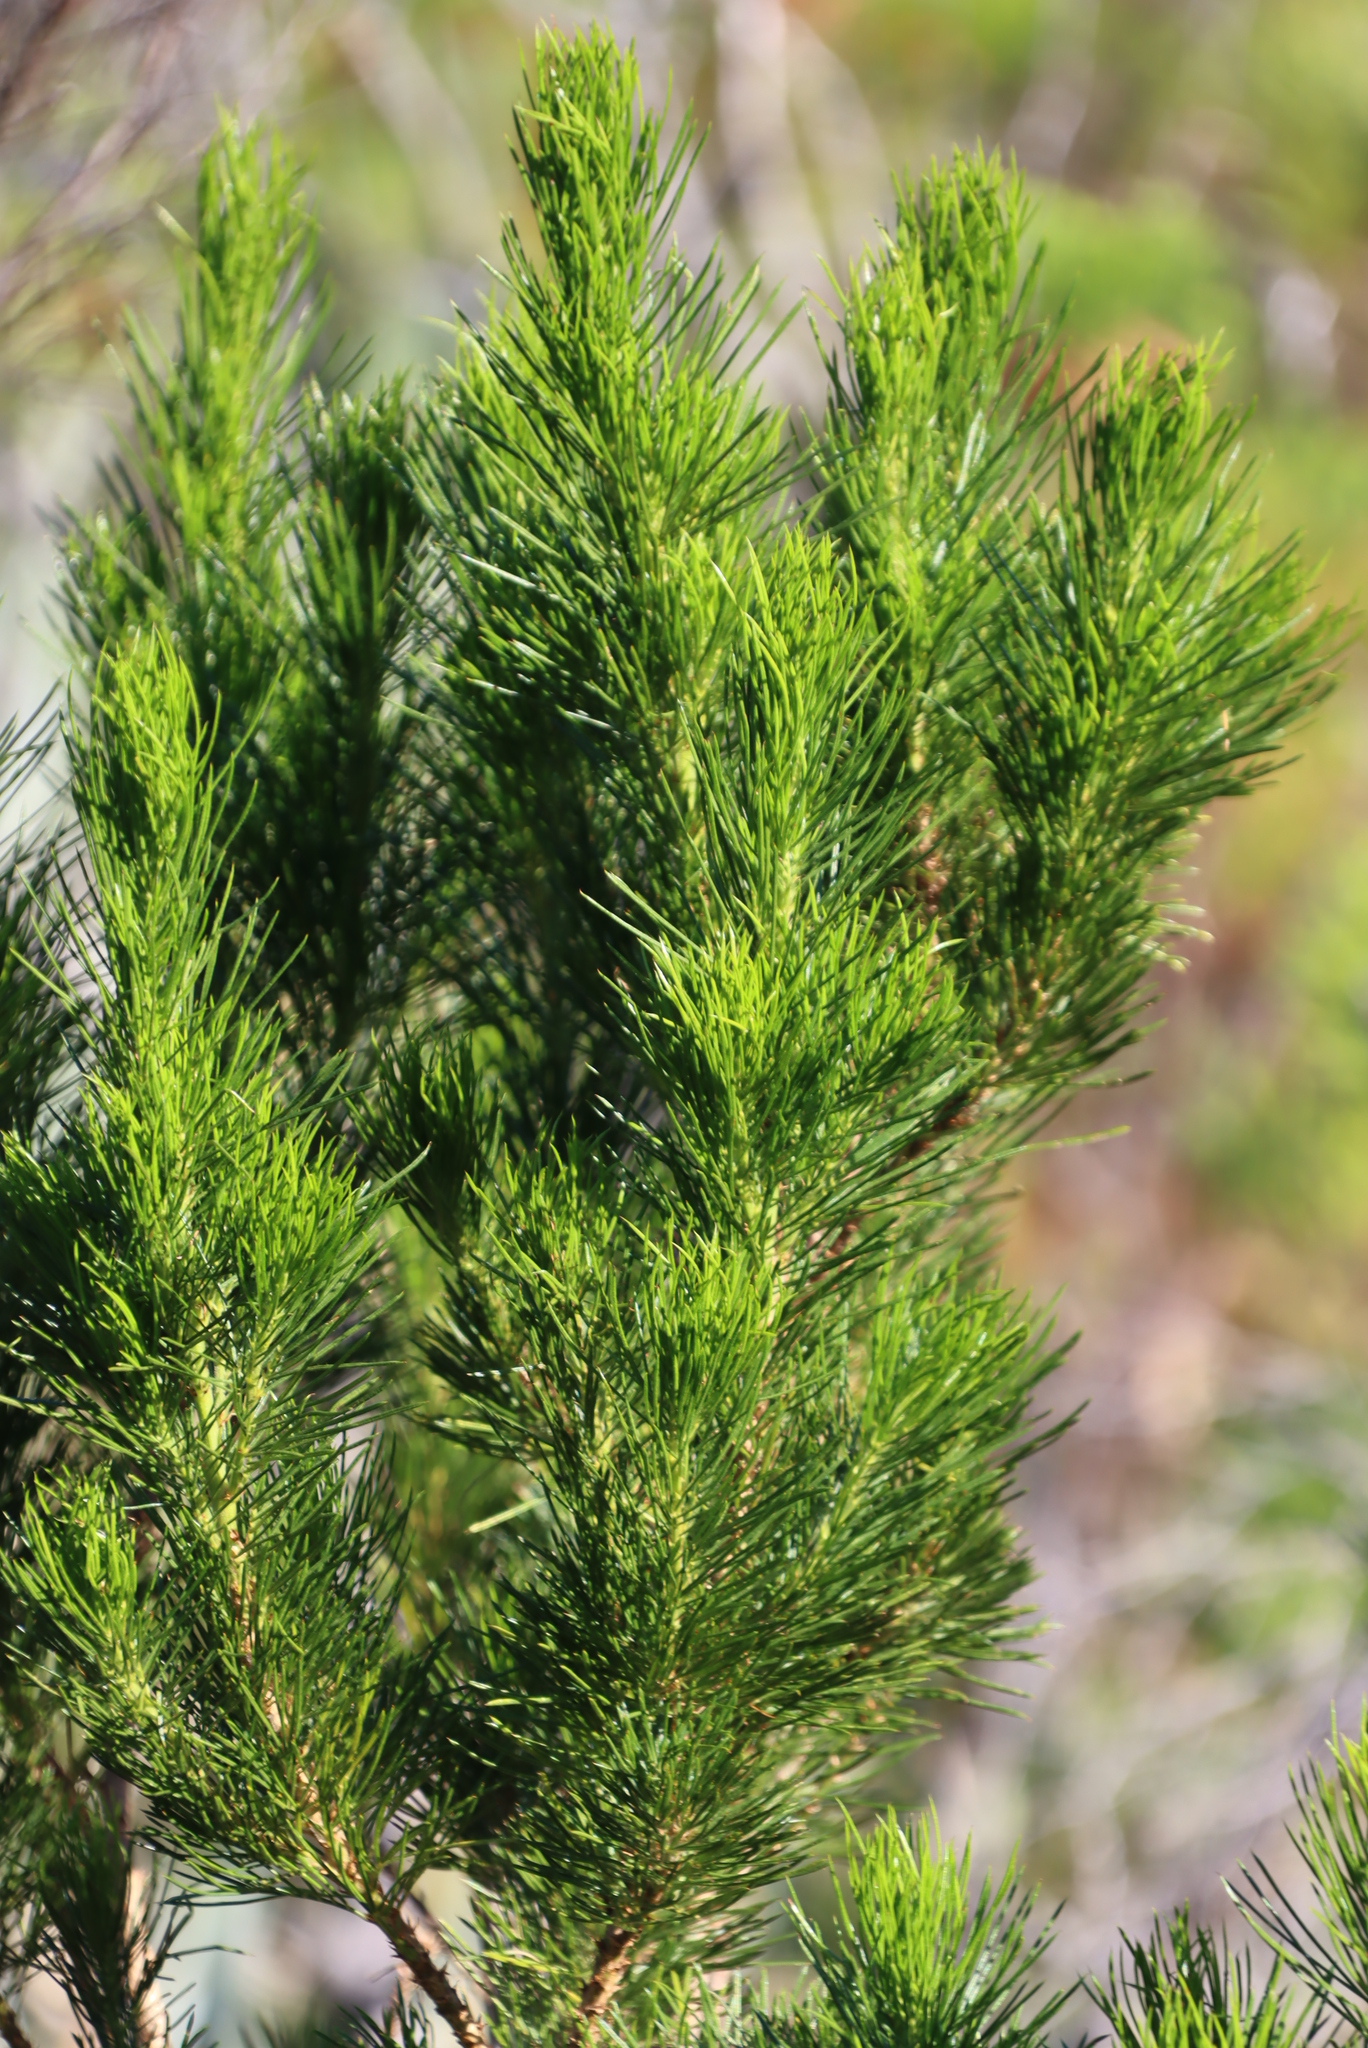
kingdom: Plantae
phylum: Tracheophyta
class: Magnoliopsida
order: Fabales
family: Fabaceae
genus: Psoralea
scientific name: Psoralea pinnata
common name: African scurfpea
